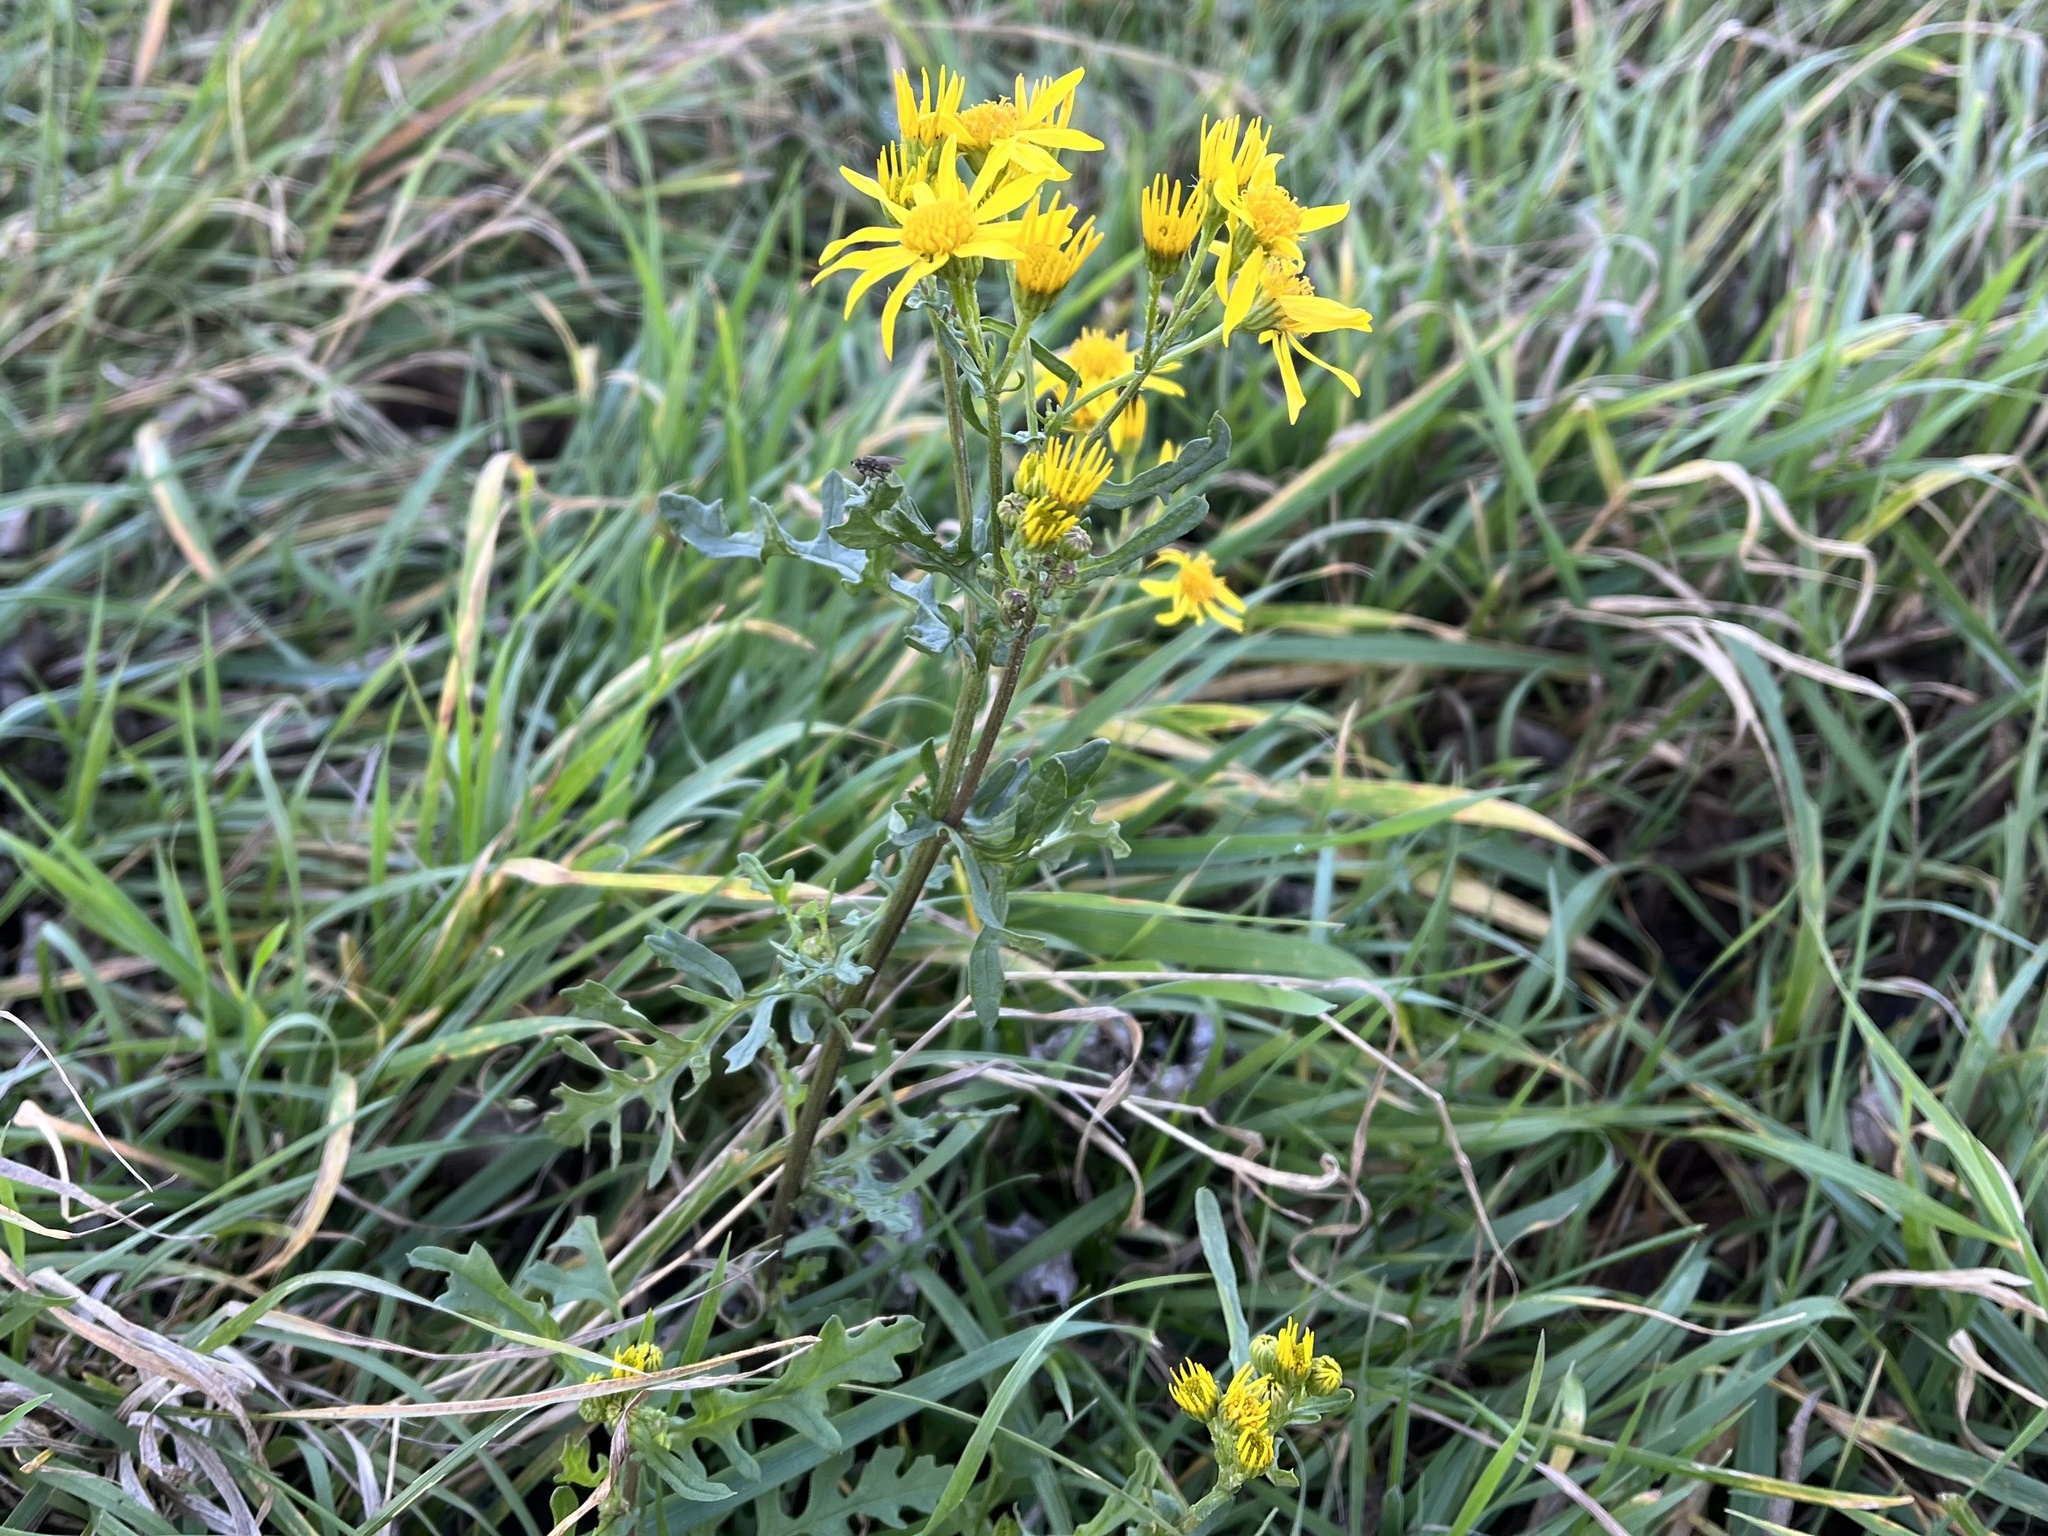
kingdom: Plantae
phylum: Tracheophyta
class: Magnoliopsida
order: Asterales
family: Asteraceae
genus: Jacobaea
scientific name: Jacobaea vulgaris
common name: Stinking willie
